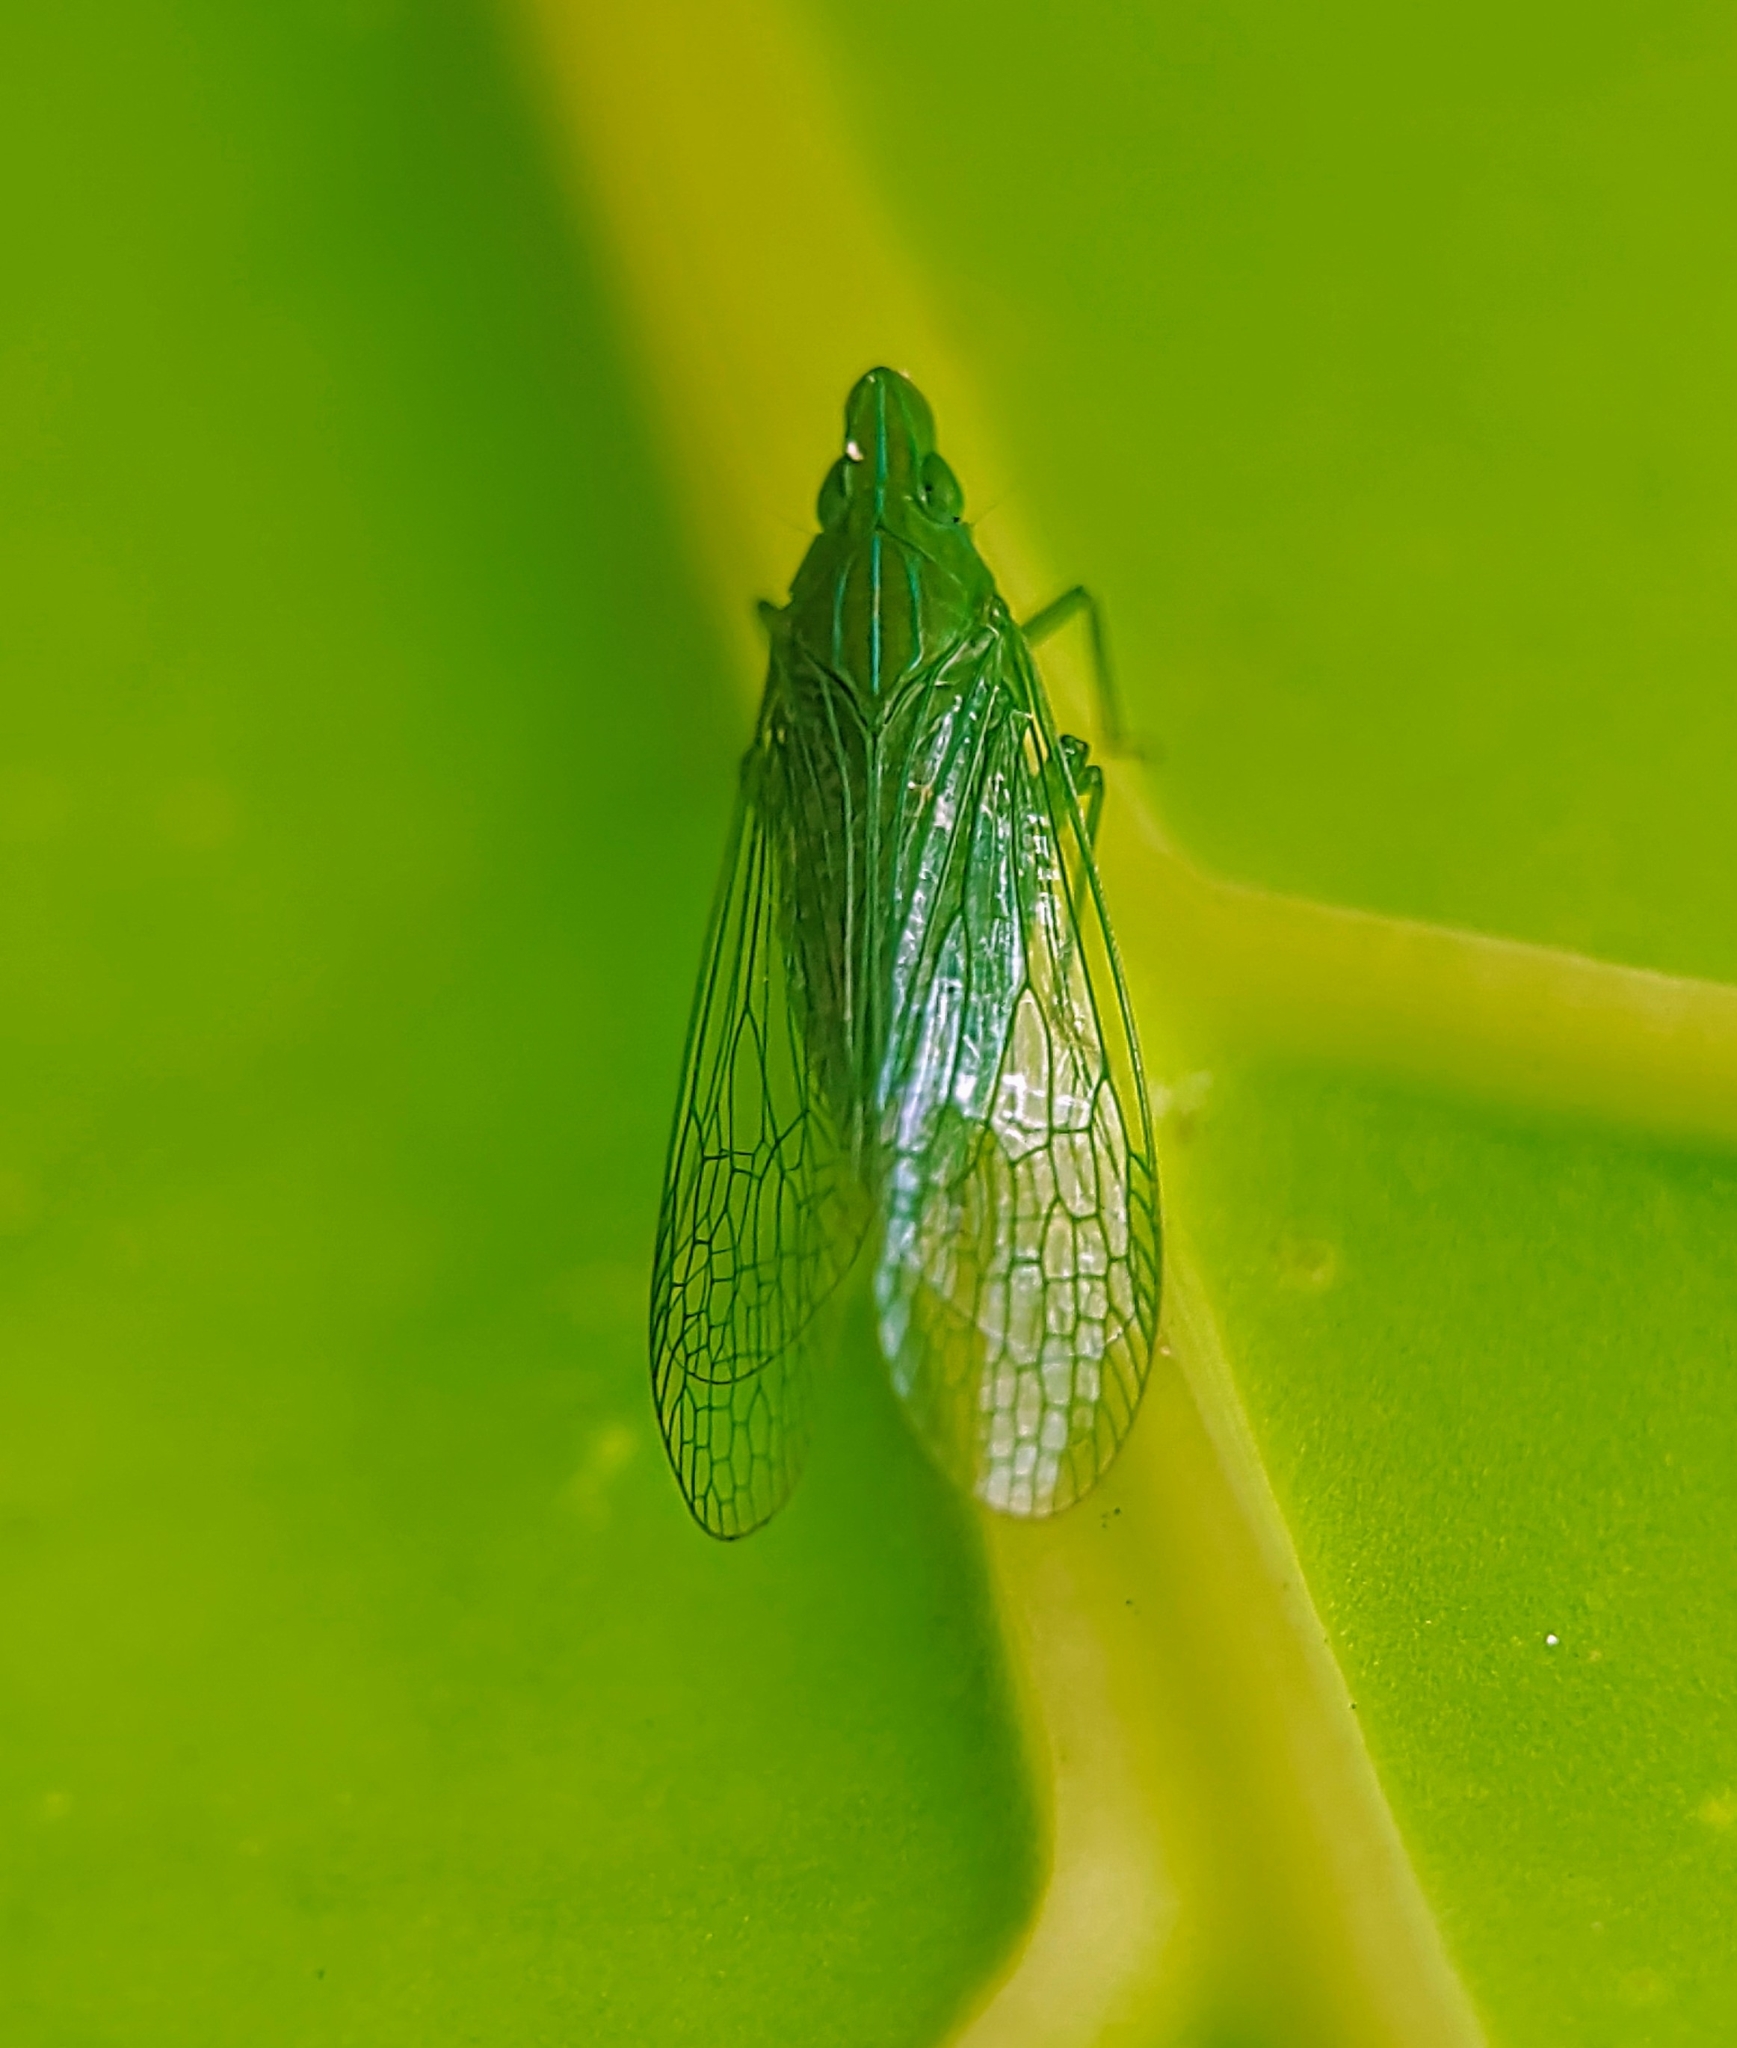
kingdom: Animalia
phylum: Arthropoda
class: Insecta
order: Hemiptera
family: Dictyopharidae
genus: Dictyopharina
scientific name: Dictyopharina longicephala
